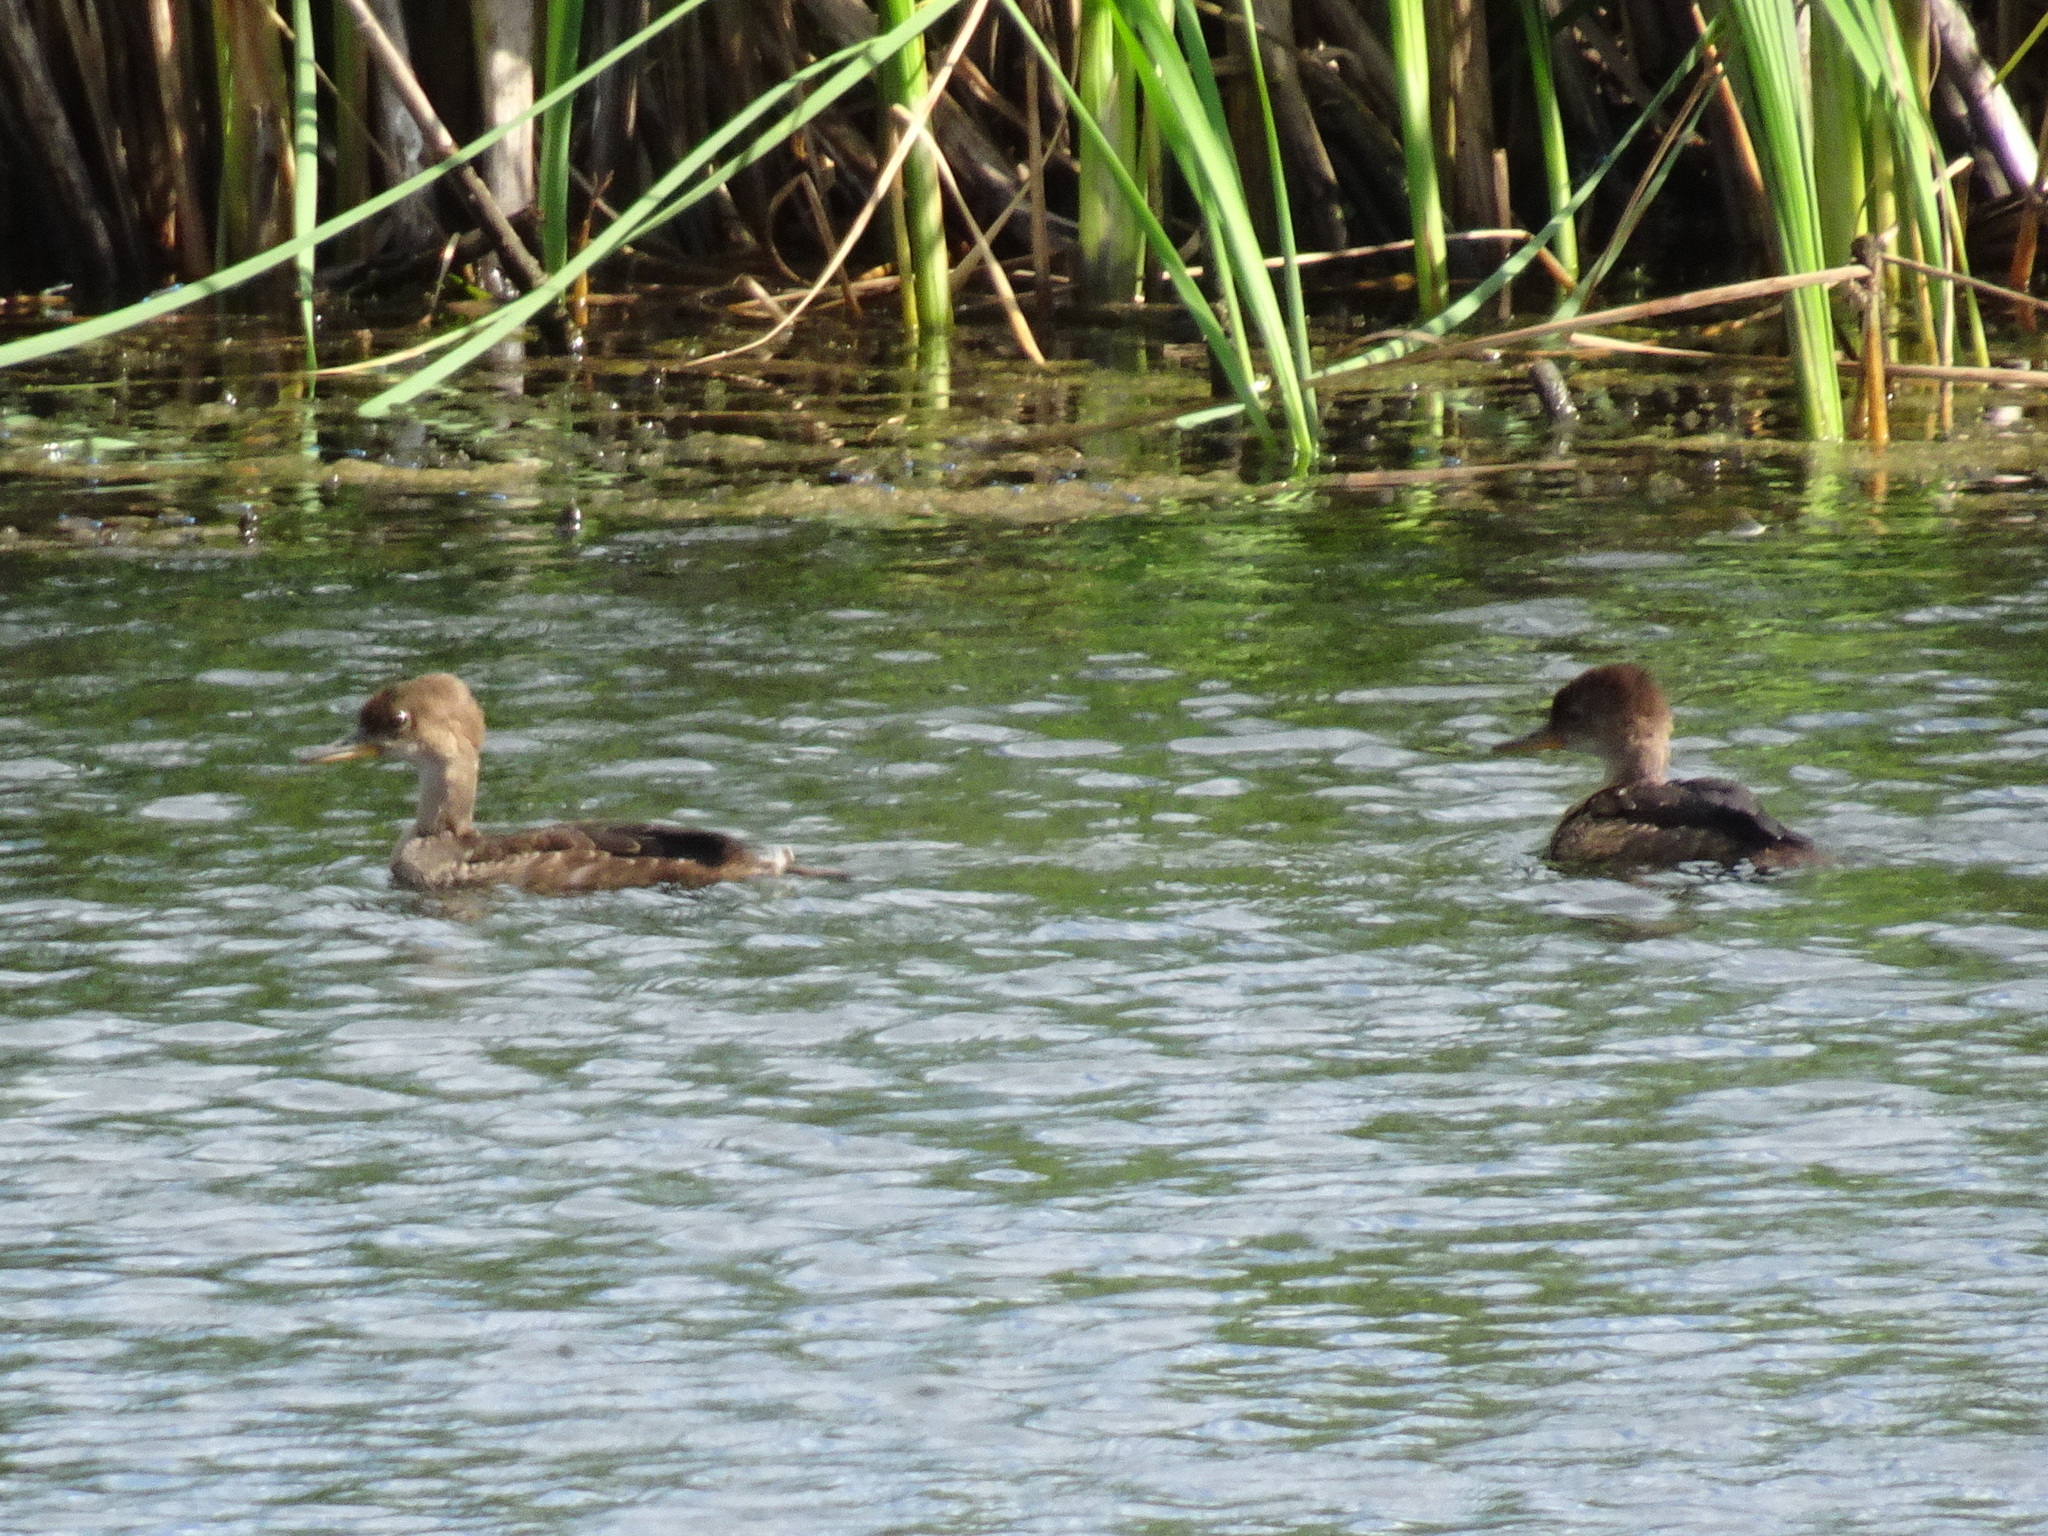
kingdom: Animalia
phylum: Chordata
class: Aves
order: Anseriformes
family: Anatidae
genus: Lophodytes
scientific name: Lophodytes cucullatus
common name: Hooded merganser
